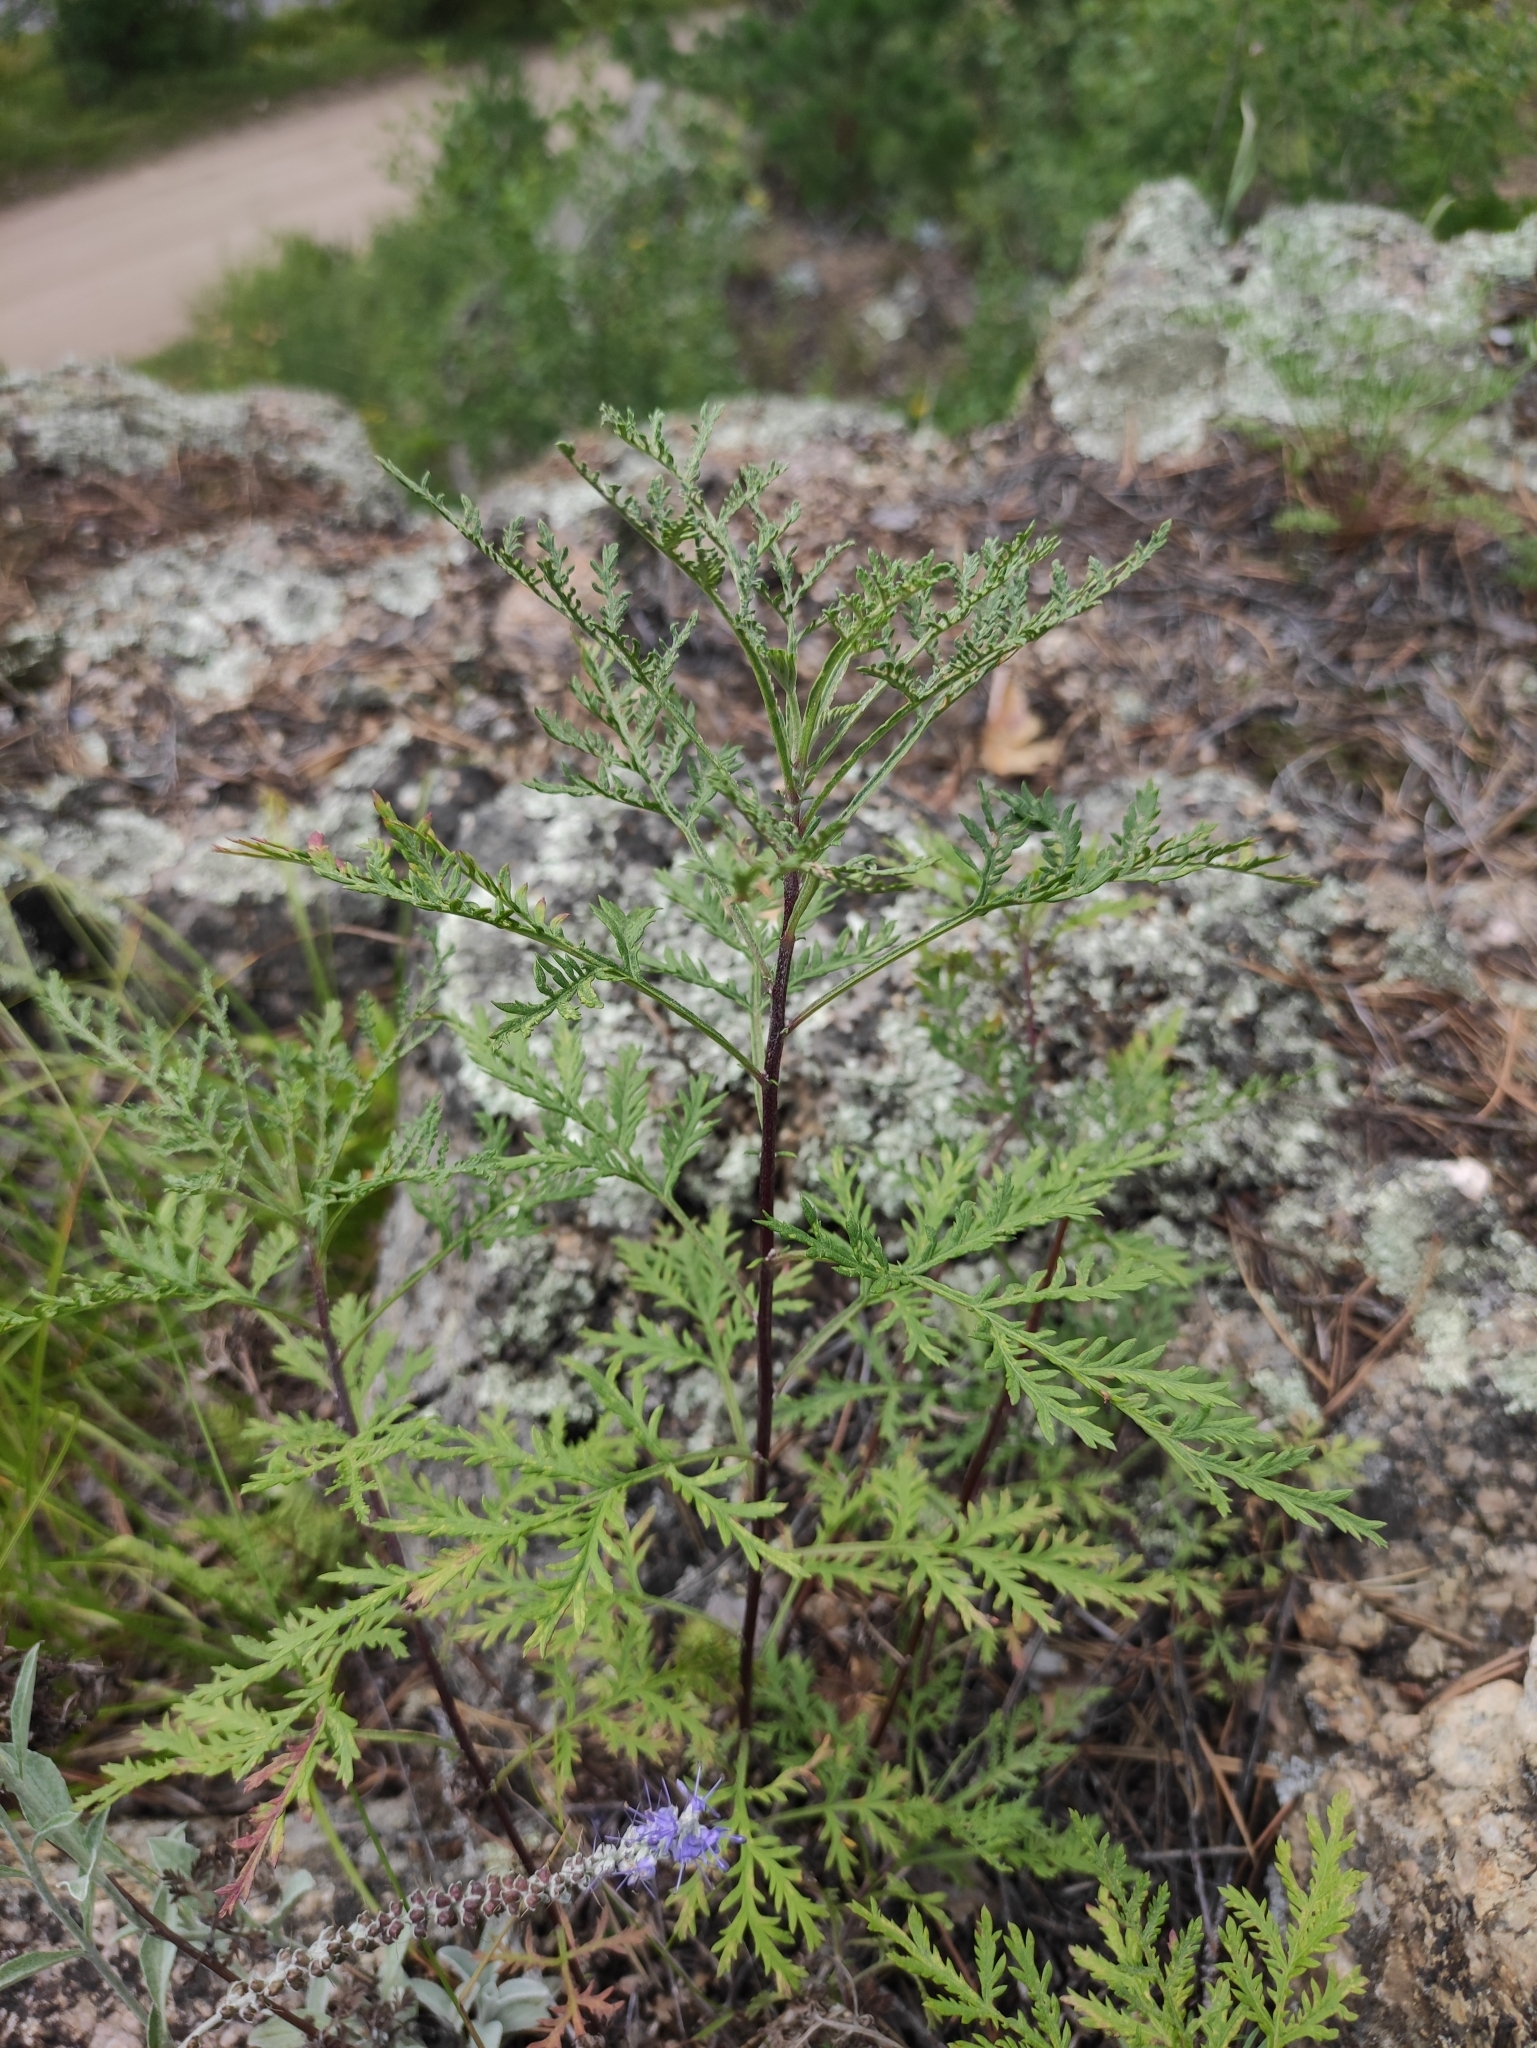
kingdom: Plantae
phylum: Tracheophyta
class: Magnoliopsida
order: Asterales
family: Asteraceae
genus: Artemisia
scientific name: Artemisia gmelinii
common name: Gmelin's wormwood
